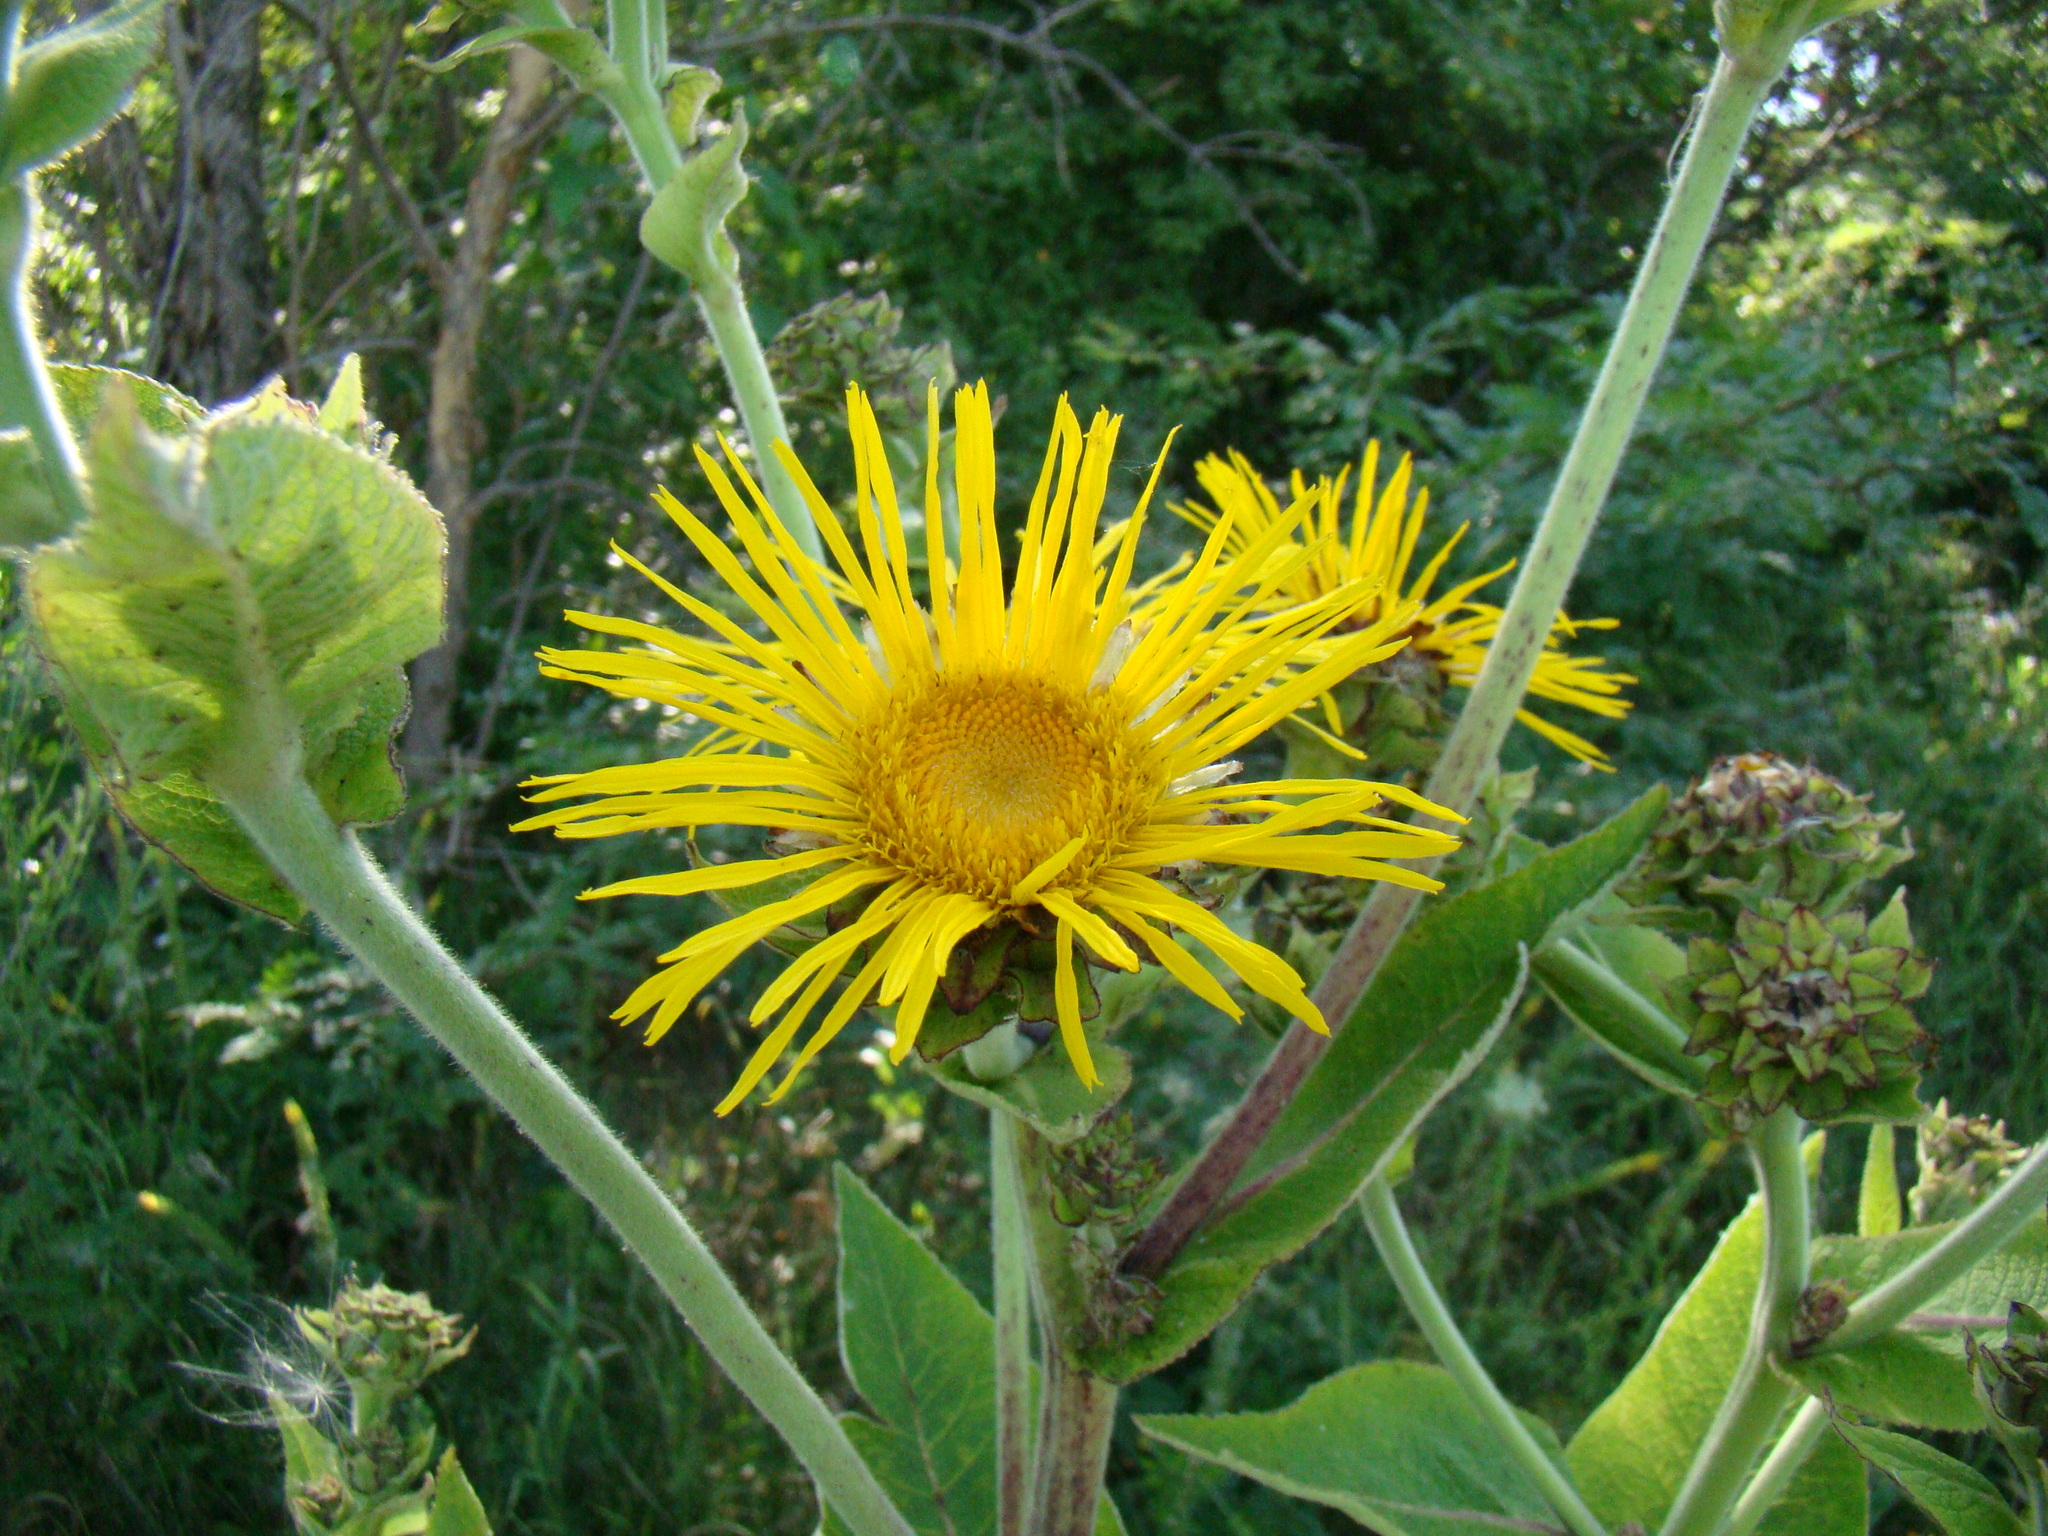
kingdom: Plantae
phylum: Tracheophyta
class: Magnoliopsida
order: Asterales
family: Asteraceae
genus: Inula
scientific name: Inula helenium
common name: Elecampane
